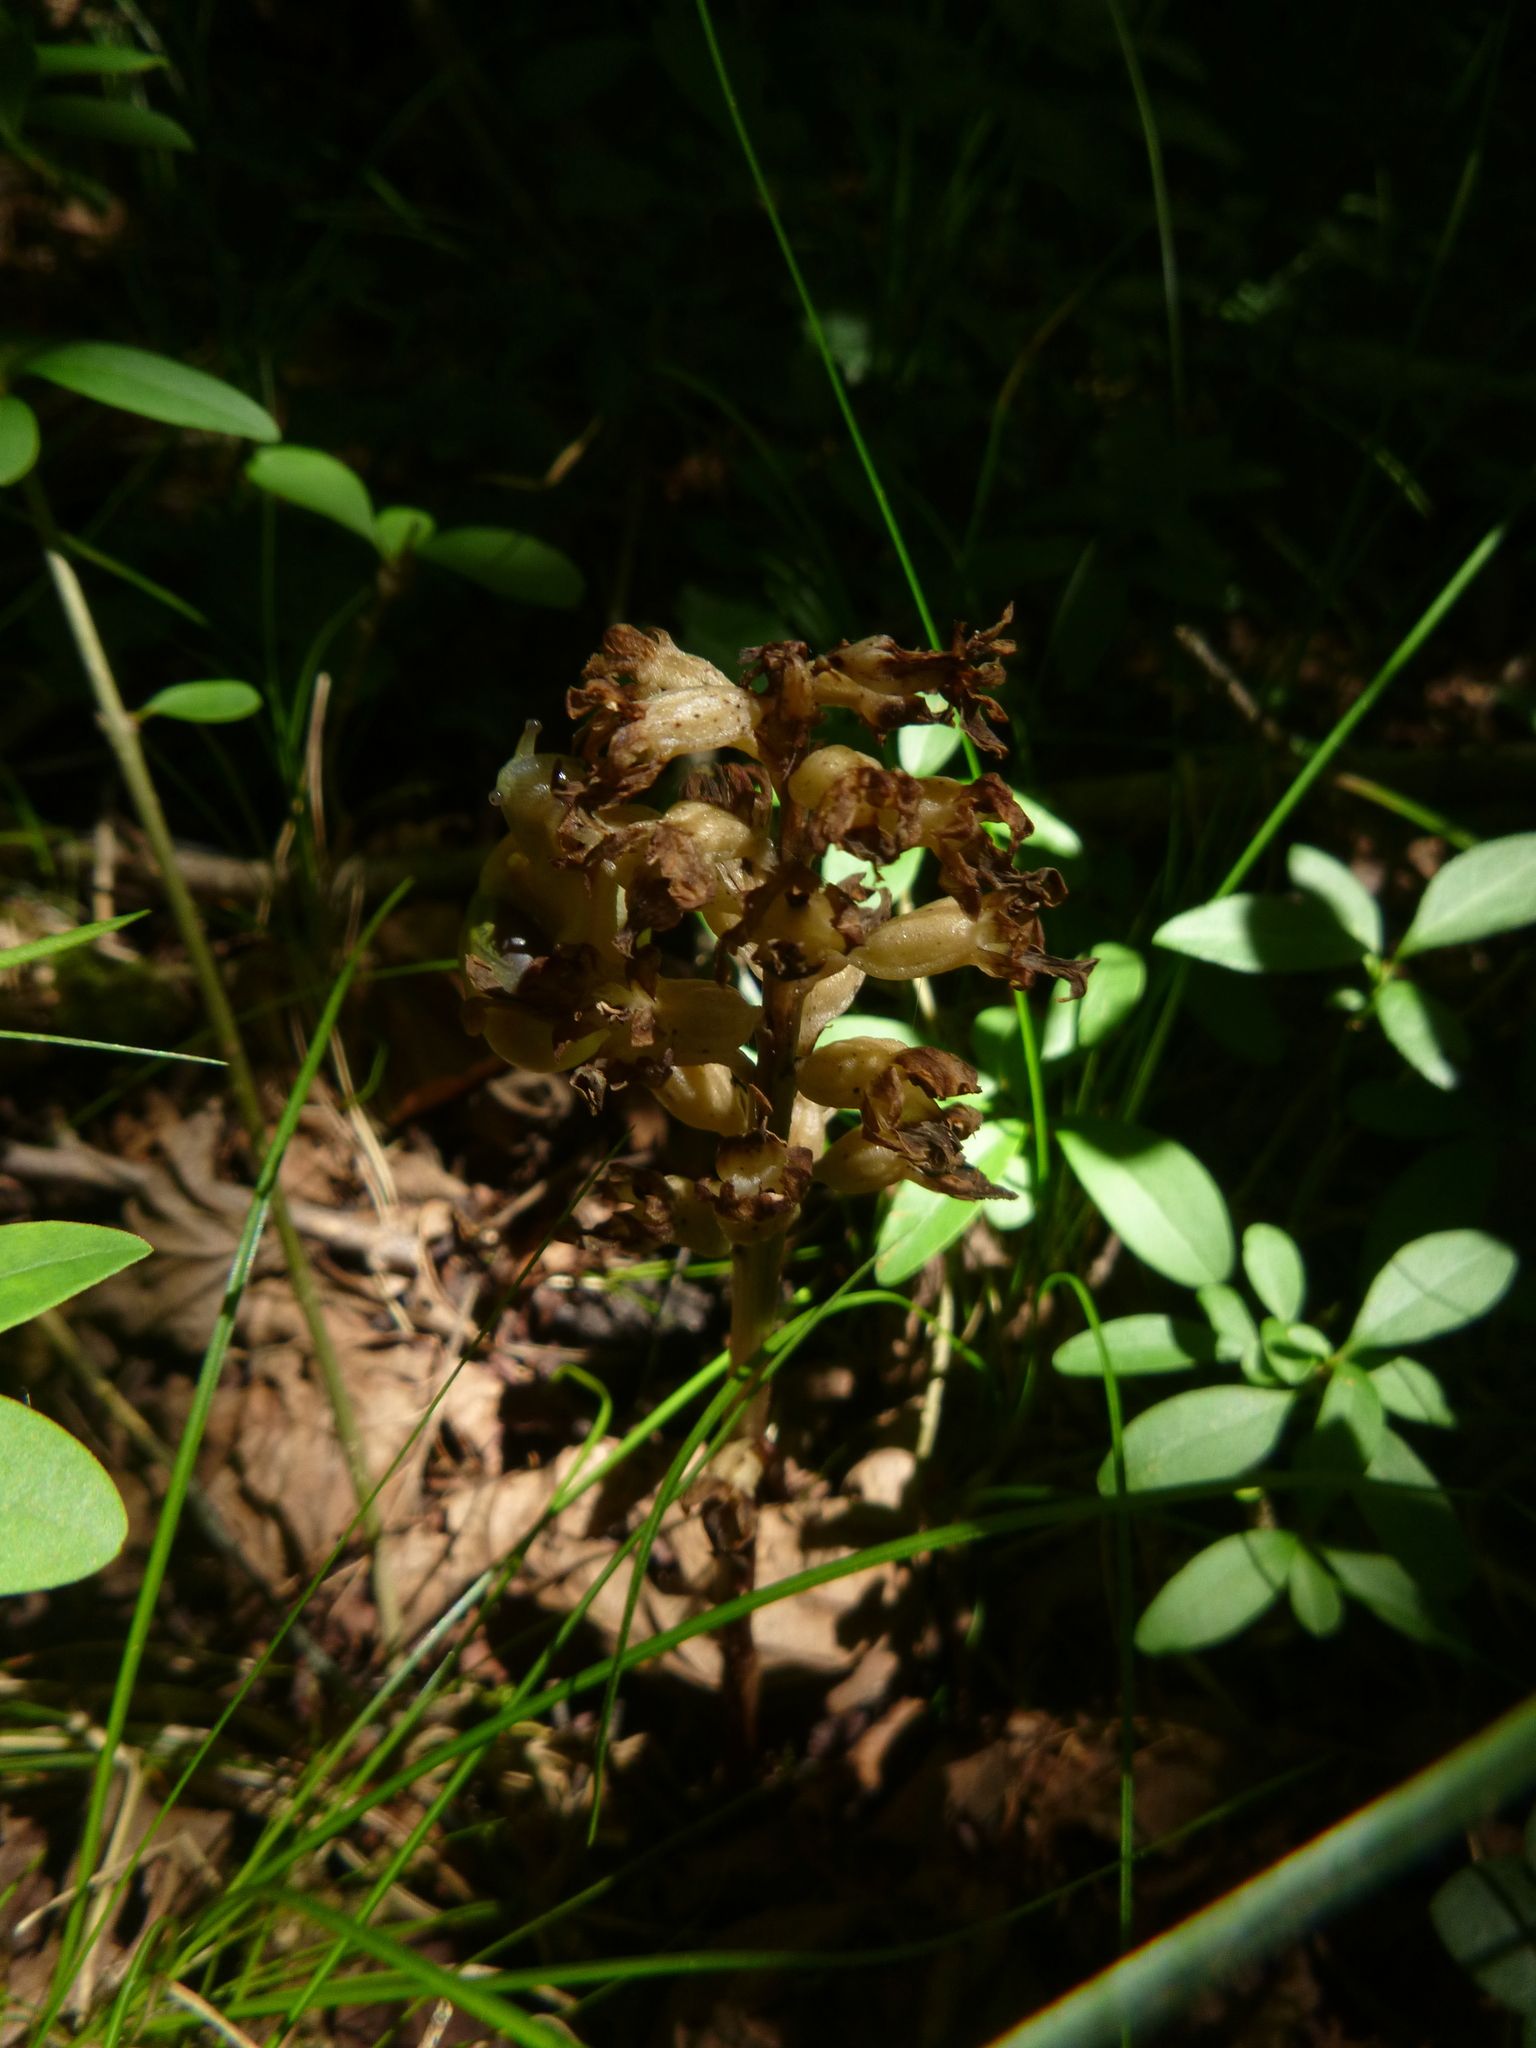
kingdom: Plantae
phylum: Tracheophyta
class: Liliopsida
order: Asparagales
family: Orchidaceae
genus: Neottia
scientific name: Neottia nidus-avis
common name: Bird's-nest orchid
